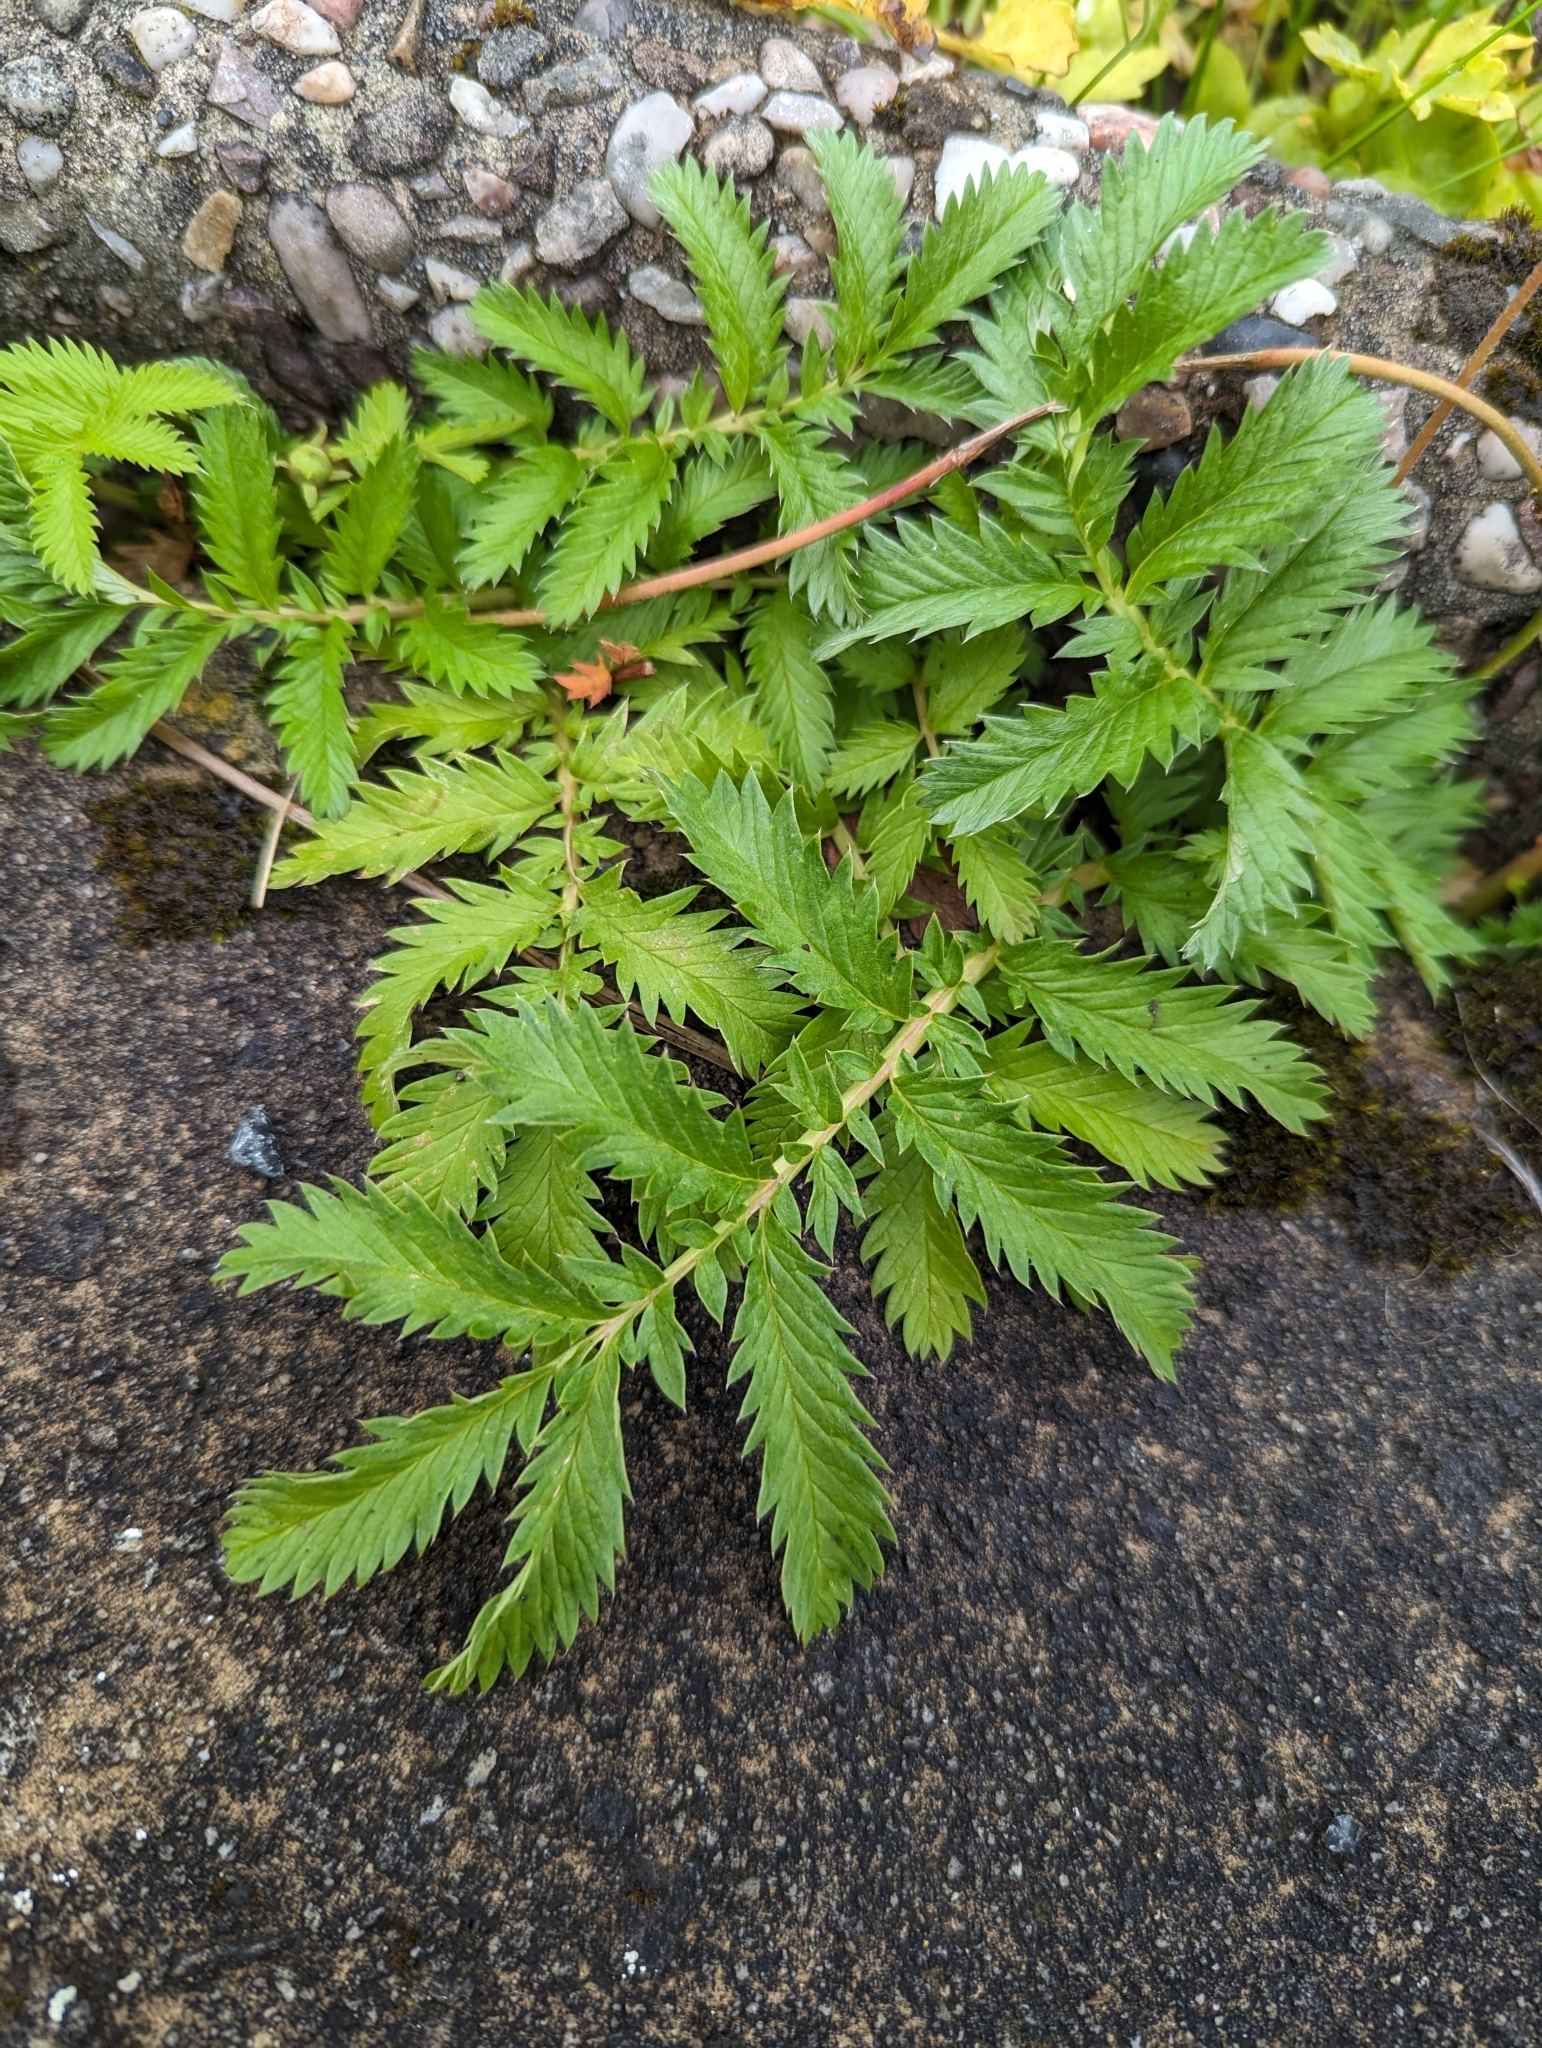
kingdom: Plantae
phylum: Tracheophyta
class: Magnoliopsida
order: Rosales
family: Rosaceae
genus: Argentina
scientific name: Argentina anserina
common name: Common silverweed
